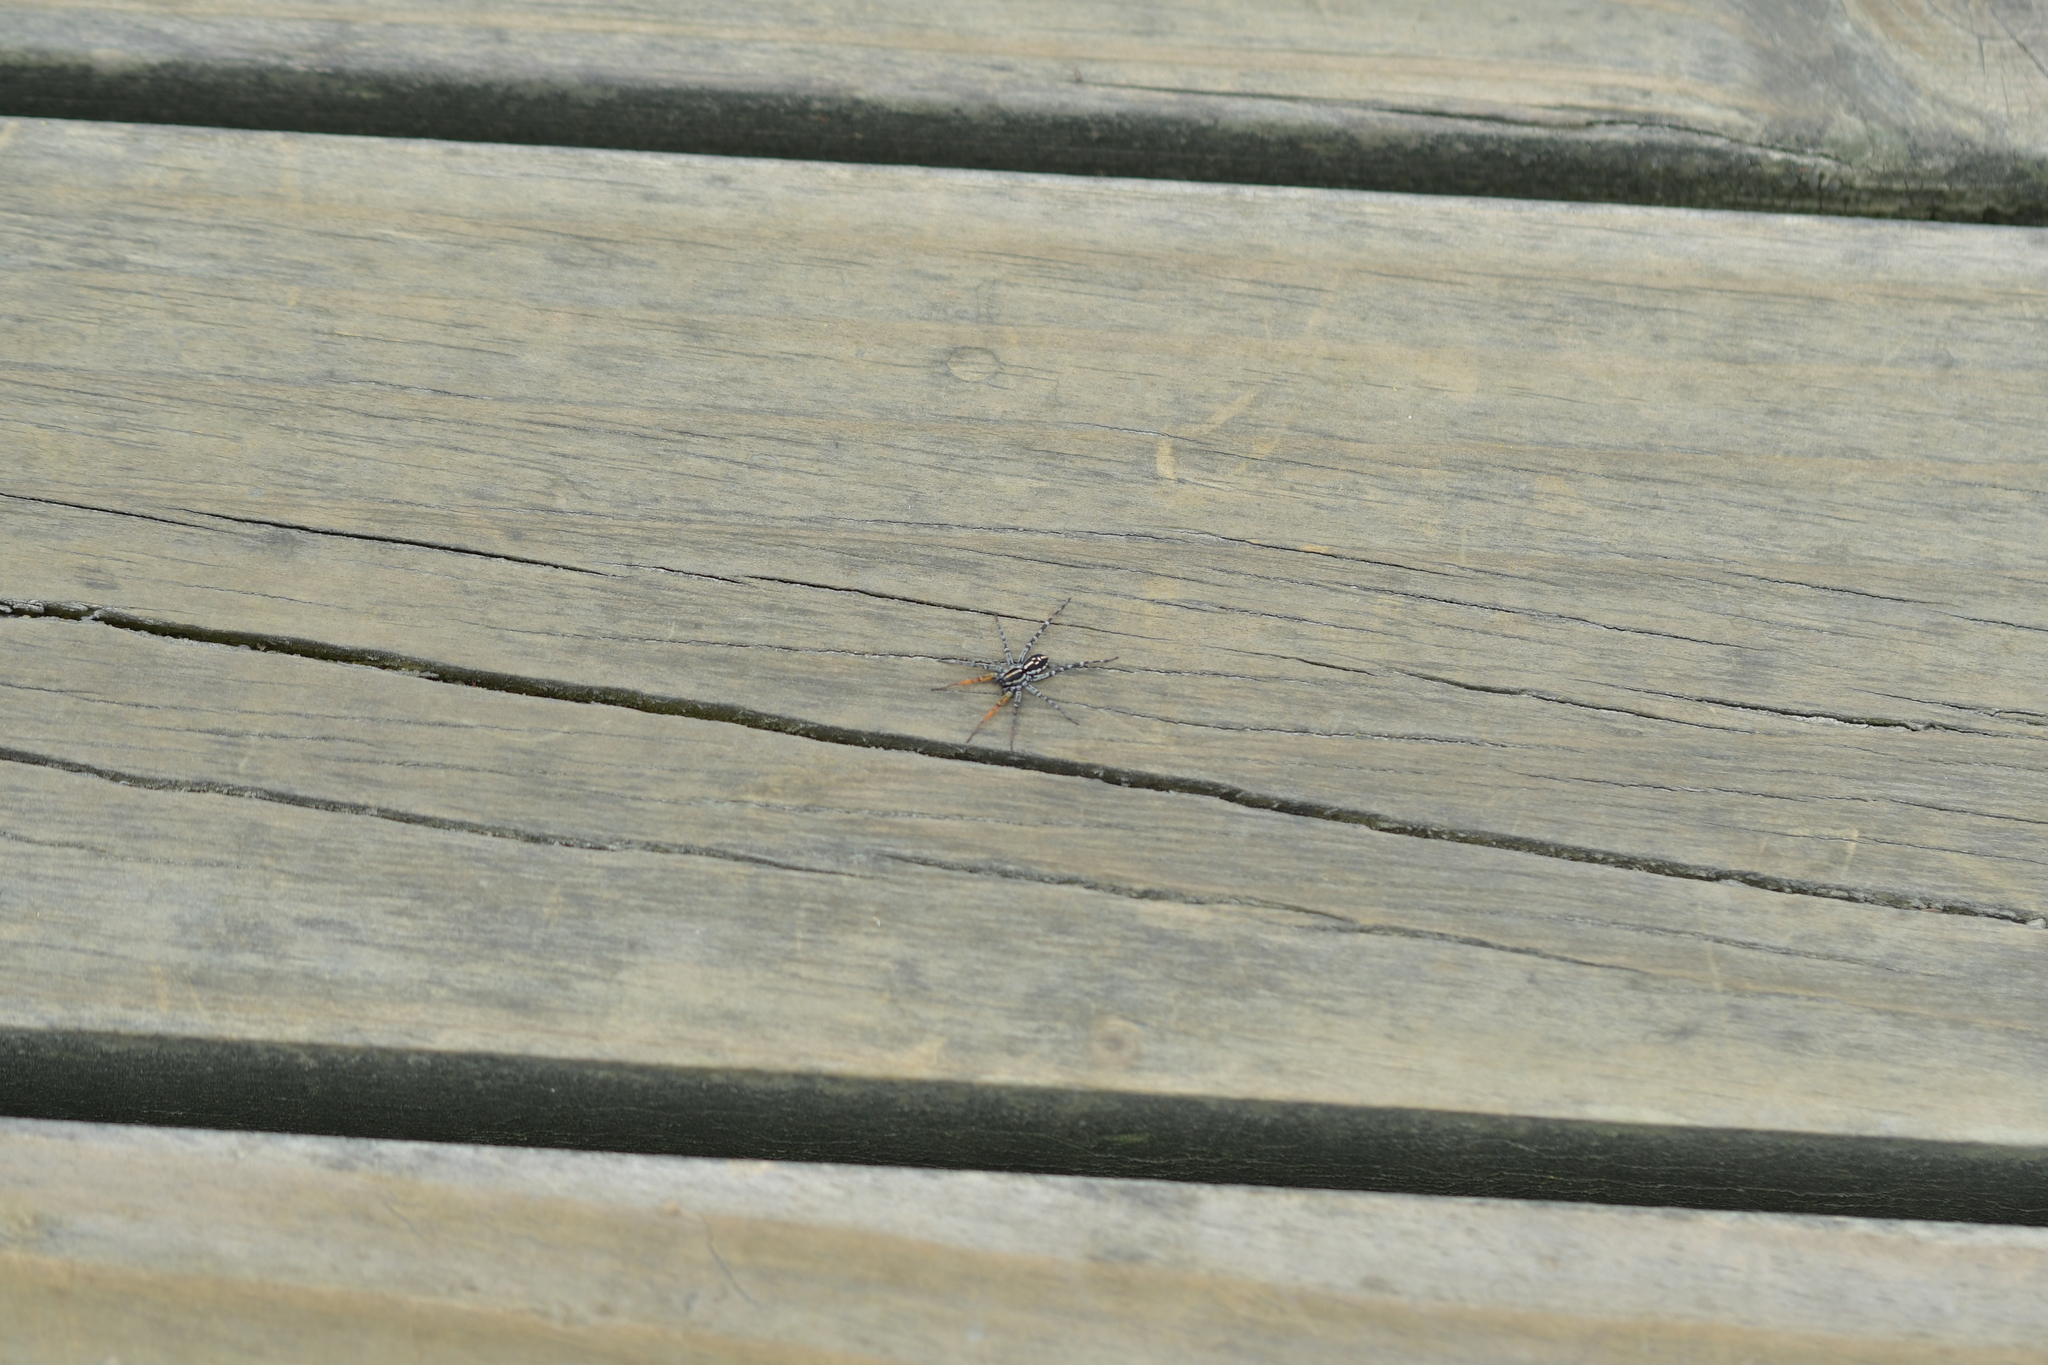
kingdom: Animalia
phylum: Arthropoda
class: Arachnida
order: Araneae
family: Corinnidae
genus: Nyssus
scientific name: Nyssus coloripes
